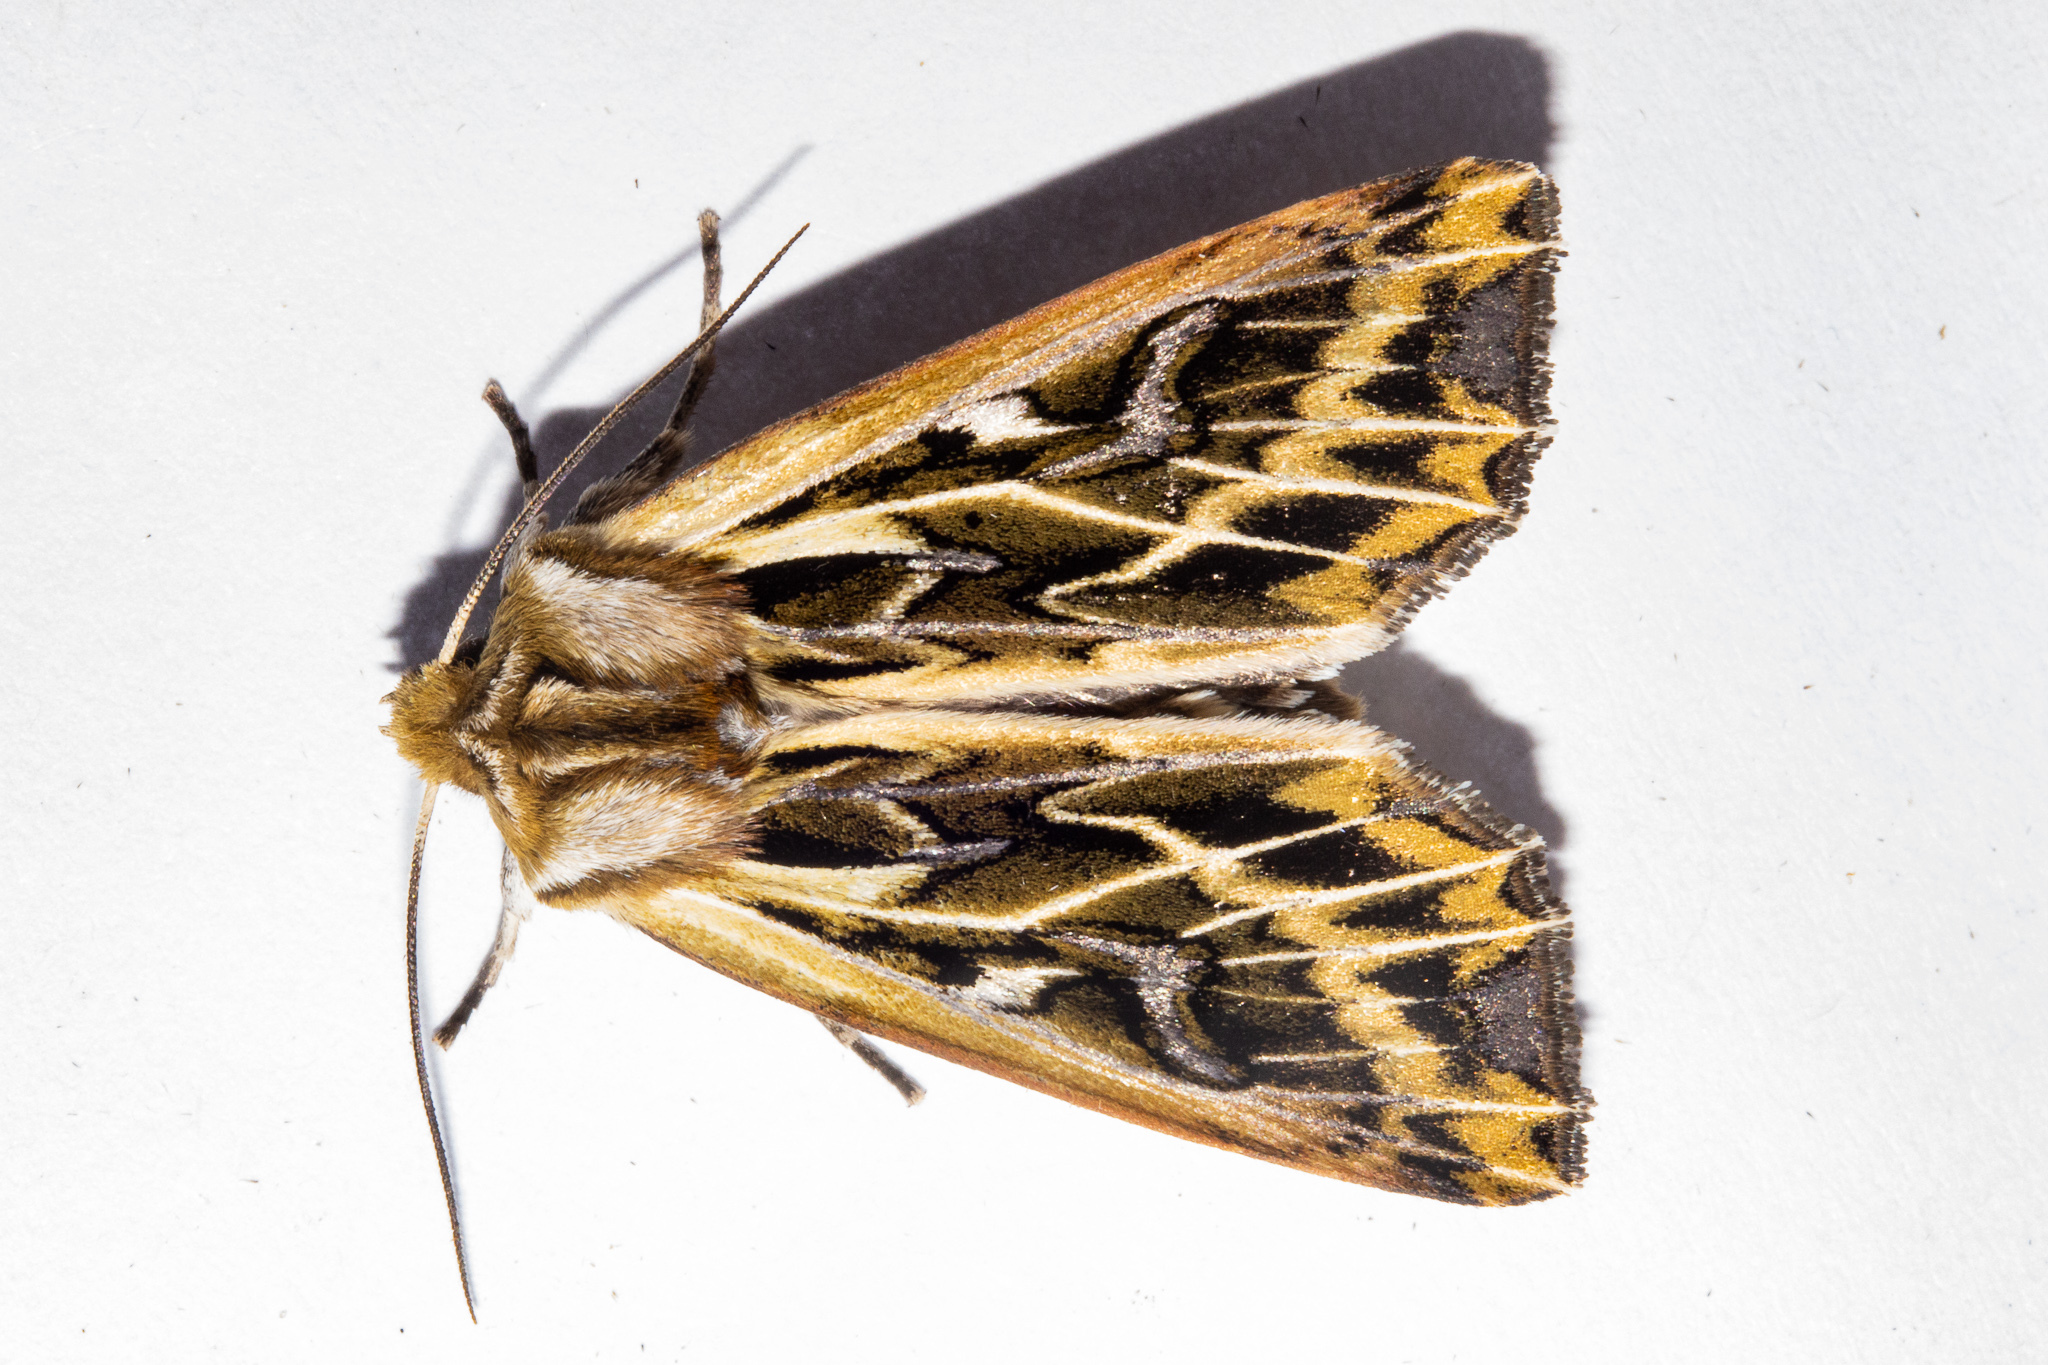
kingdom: Animalia
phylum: Arthropoda
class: Insecta
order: Lepidoptera
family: Noctuidae
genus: Ichneutica
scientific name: Ichneutica
